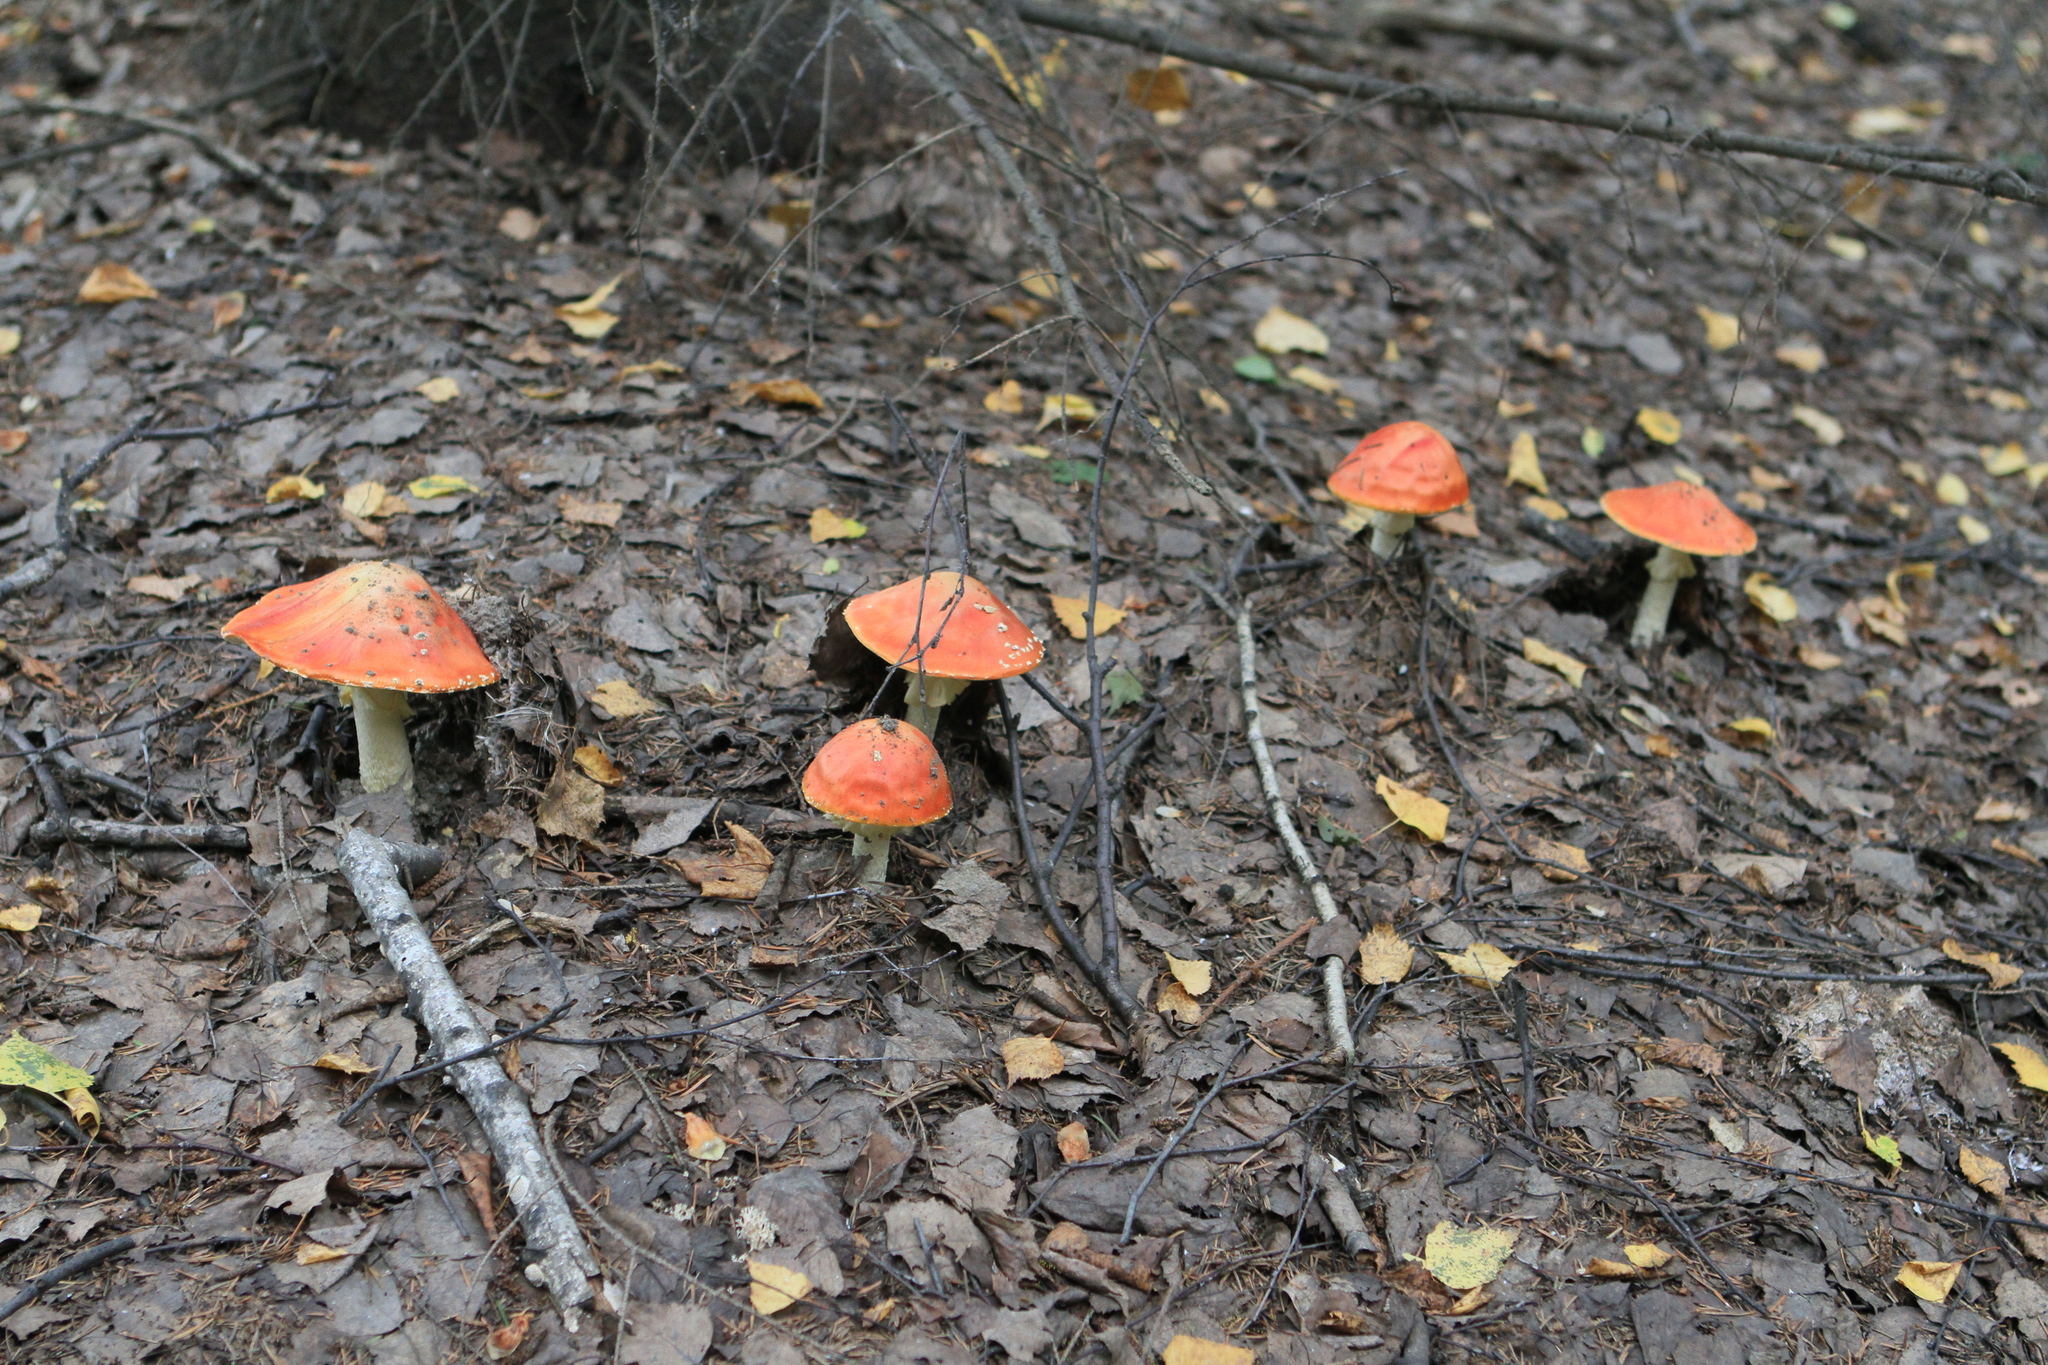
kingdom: Fungi
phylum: Basidiomycota
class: Agaricomycetes
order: Agaricales
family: Amanitaceae
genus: Amanita
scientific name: Amanita muscaria
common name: Fly agaric
